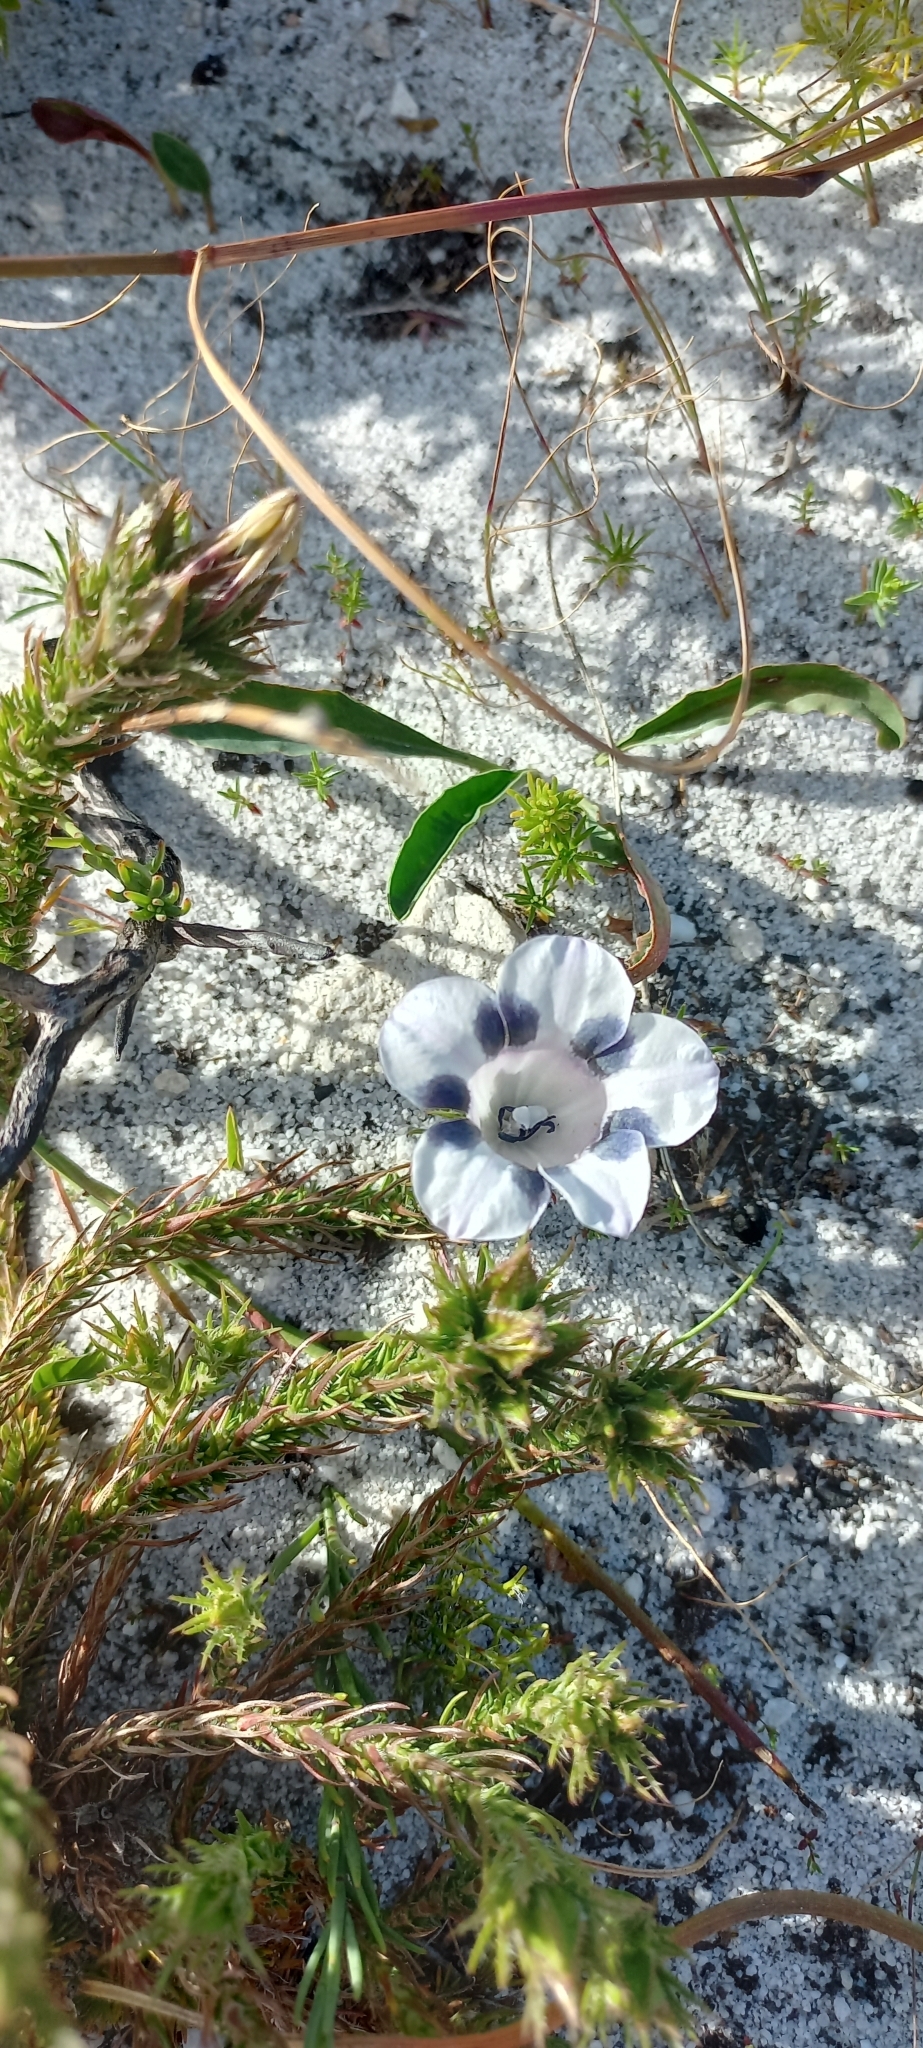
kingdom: Plantae
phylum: Tracheophyta
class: Magnoliopsida
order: Asterales
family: Campanulaceae
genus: Roella
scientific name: Roella maculata
